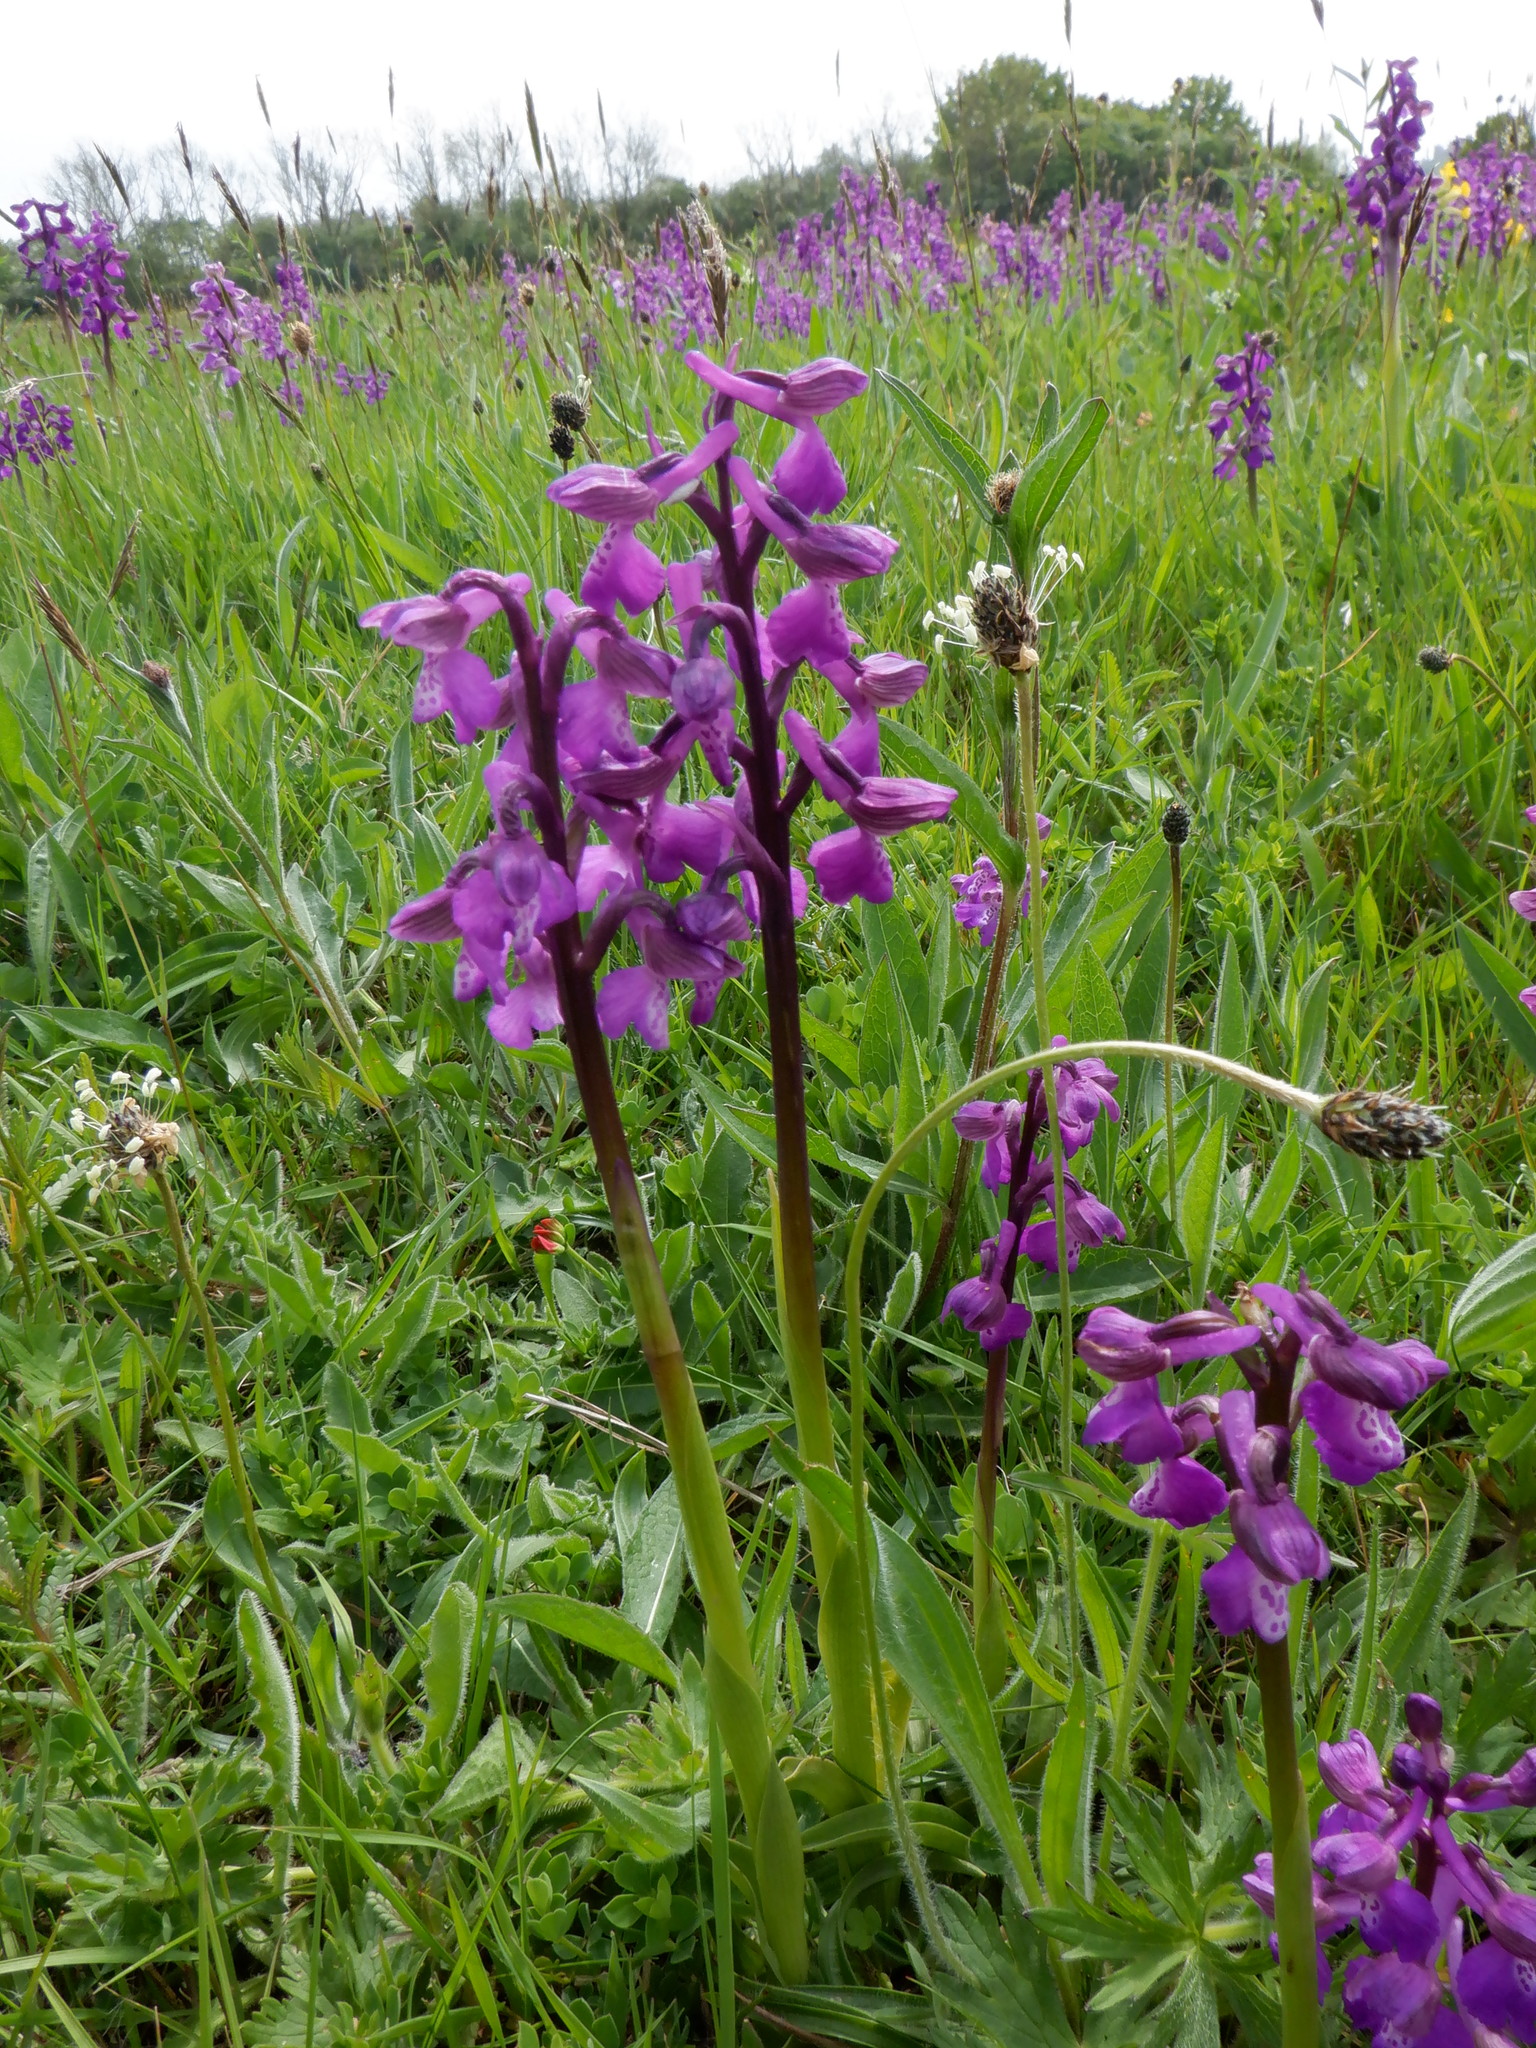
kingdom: Plantae
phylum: Tracheophyta
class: Liliopsida
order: Asparagales
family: Orchidaceae
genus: Anacamptis
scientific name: Anacamptis morio
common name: Green-winged orchid
